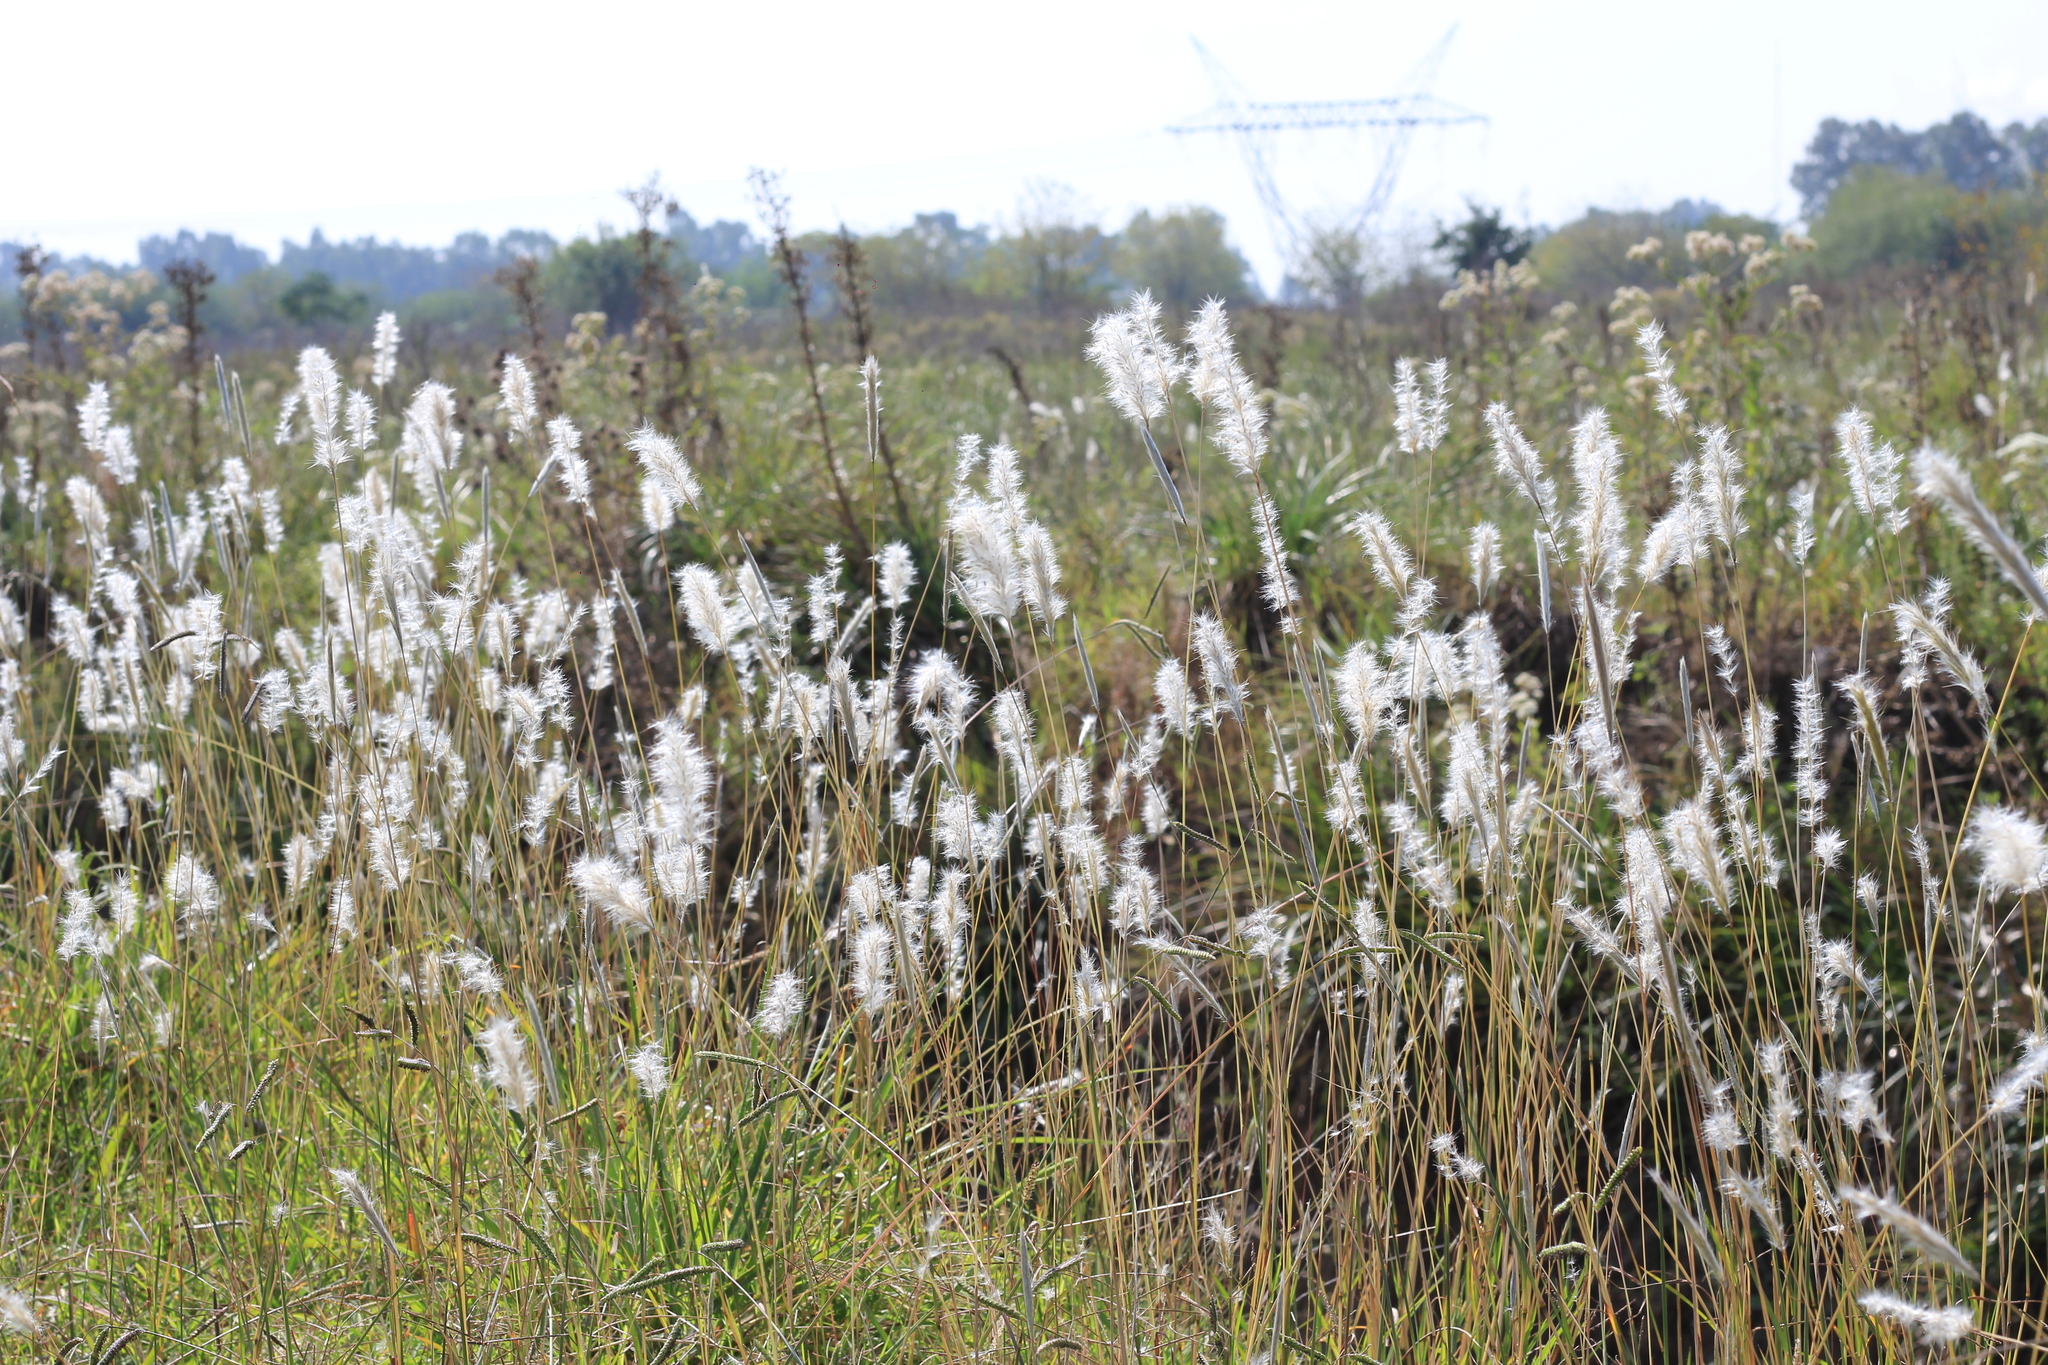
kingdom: Plantae
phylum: Tracheophyta
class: Liliopsida
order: Poales
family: Poaceae
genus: Bothriochloa
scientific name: Bothriochloa laguroides
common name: Silver bluestem
